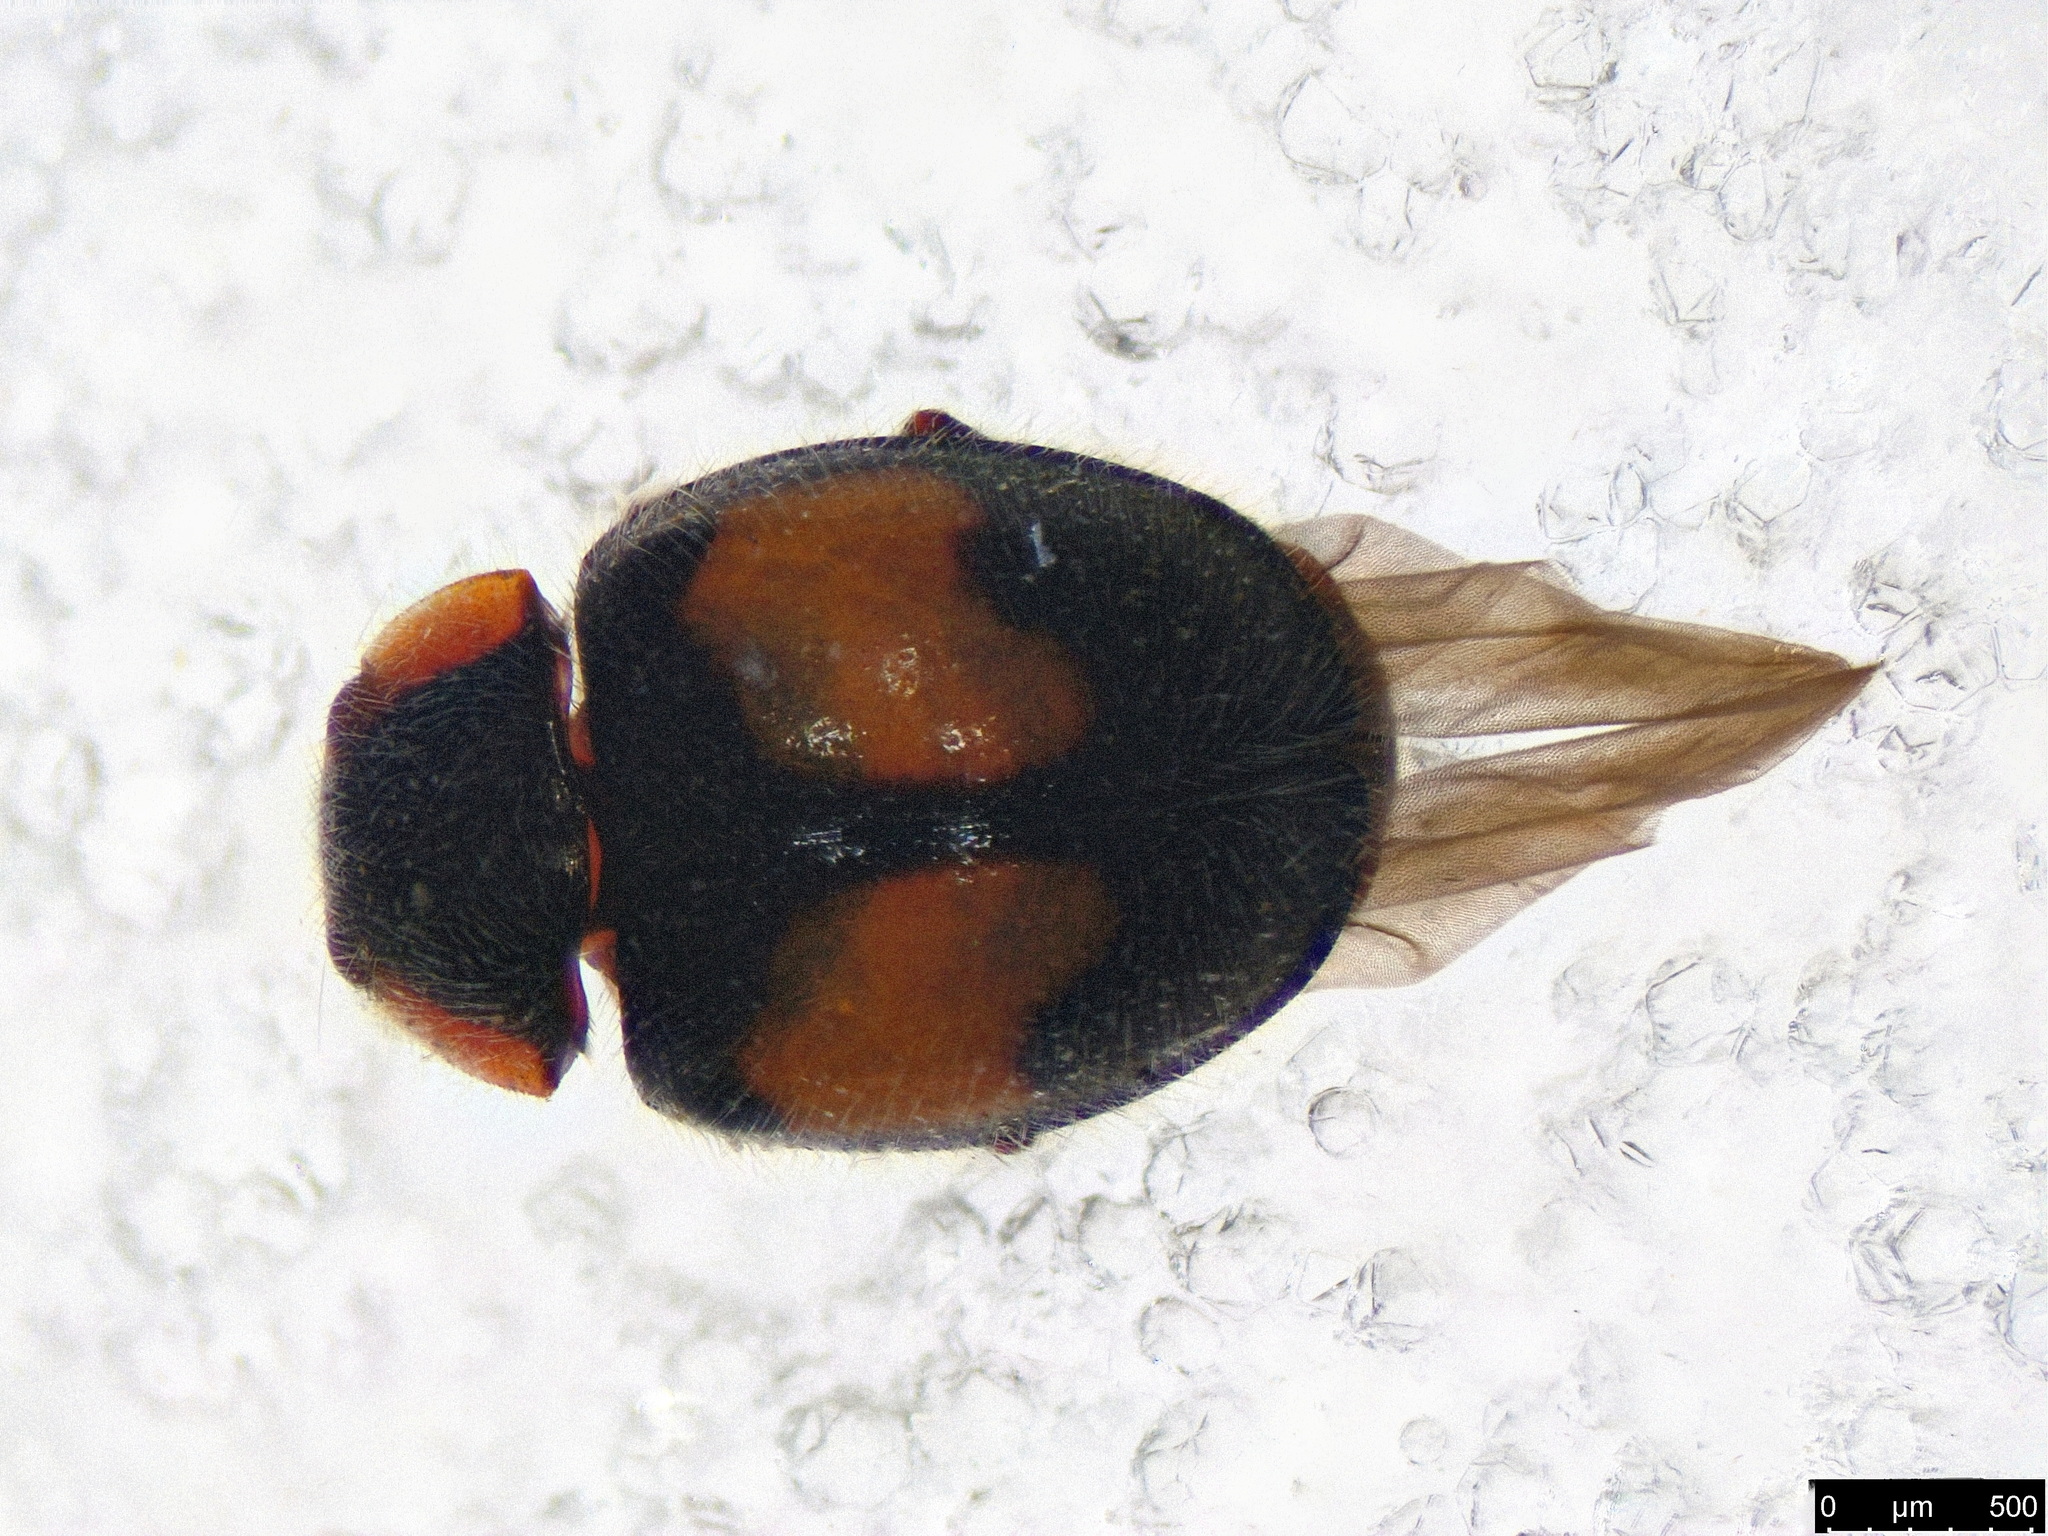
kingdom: Animalia
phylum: Arthropoda
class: Insecta
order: Coleoptera
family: Coccinellidae
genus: Scymnus
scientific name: Scymnus notescens
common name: Minute two-spotted ladybird beetle
